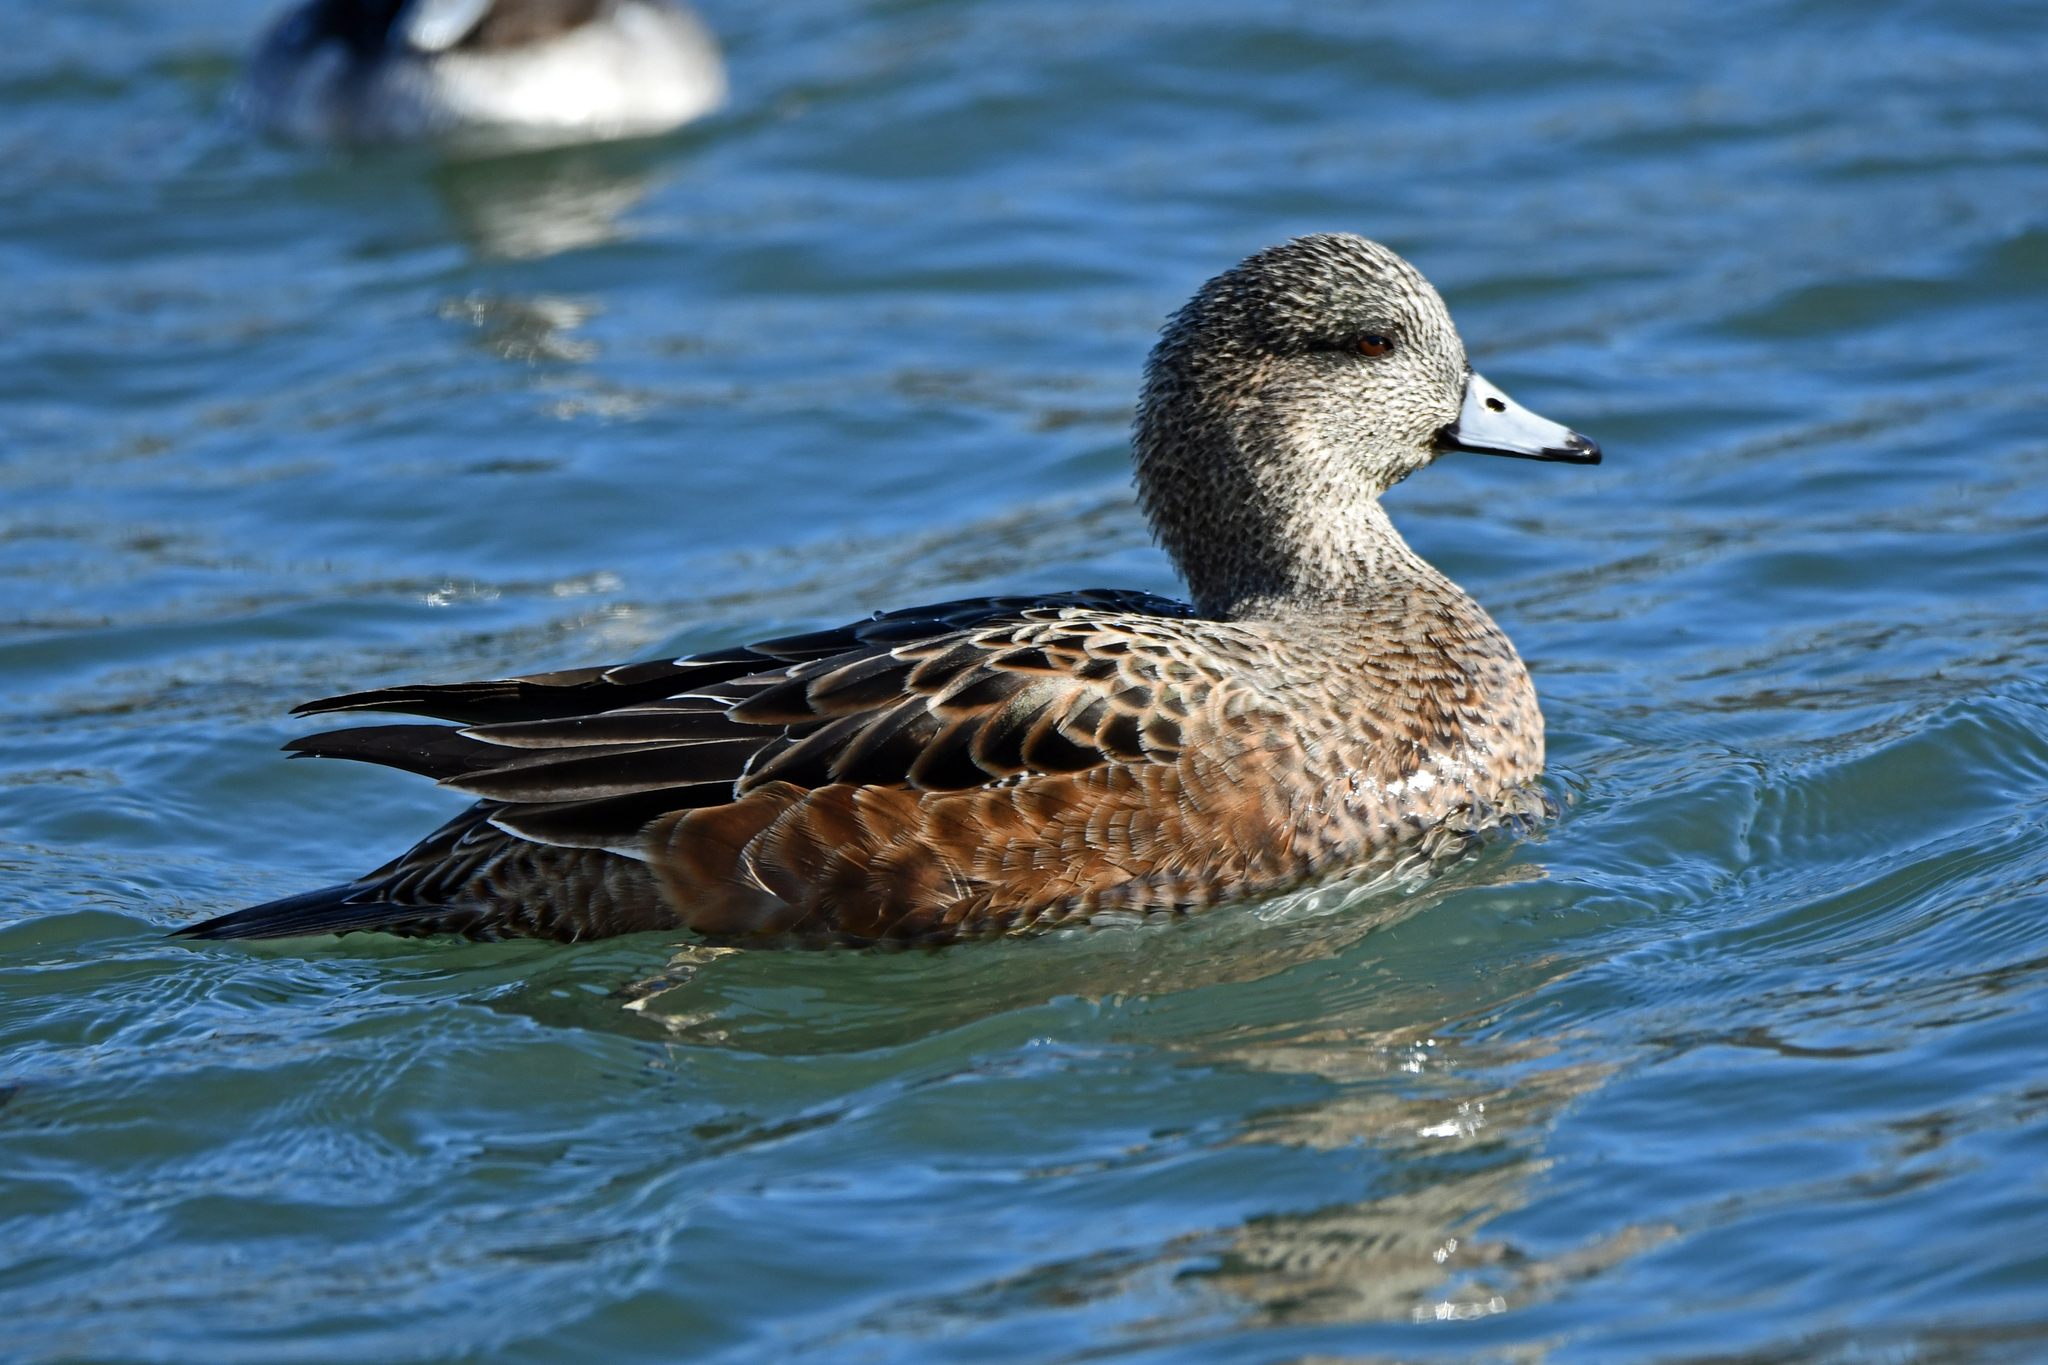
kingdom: Animalia
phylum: Chordata
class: Aves
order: Anseriformes
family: Anatidae
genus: Mareca
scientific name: Mareca americana
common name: American wigeon
